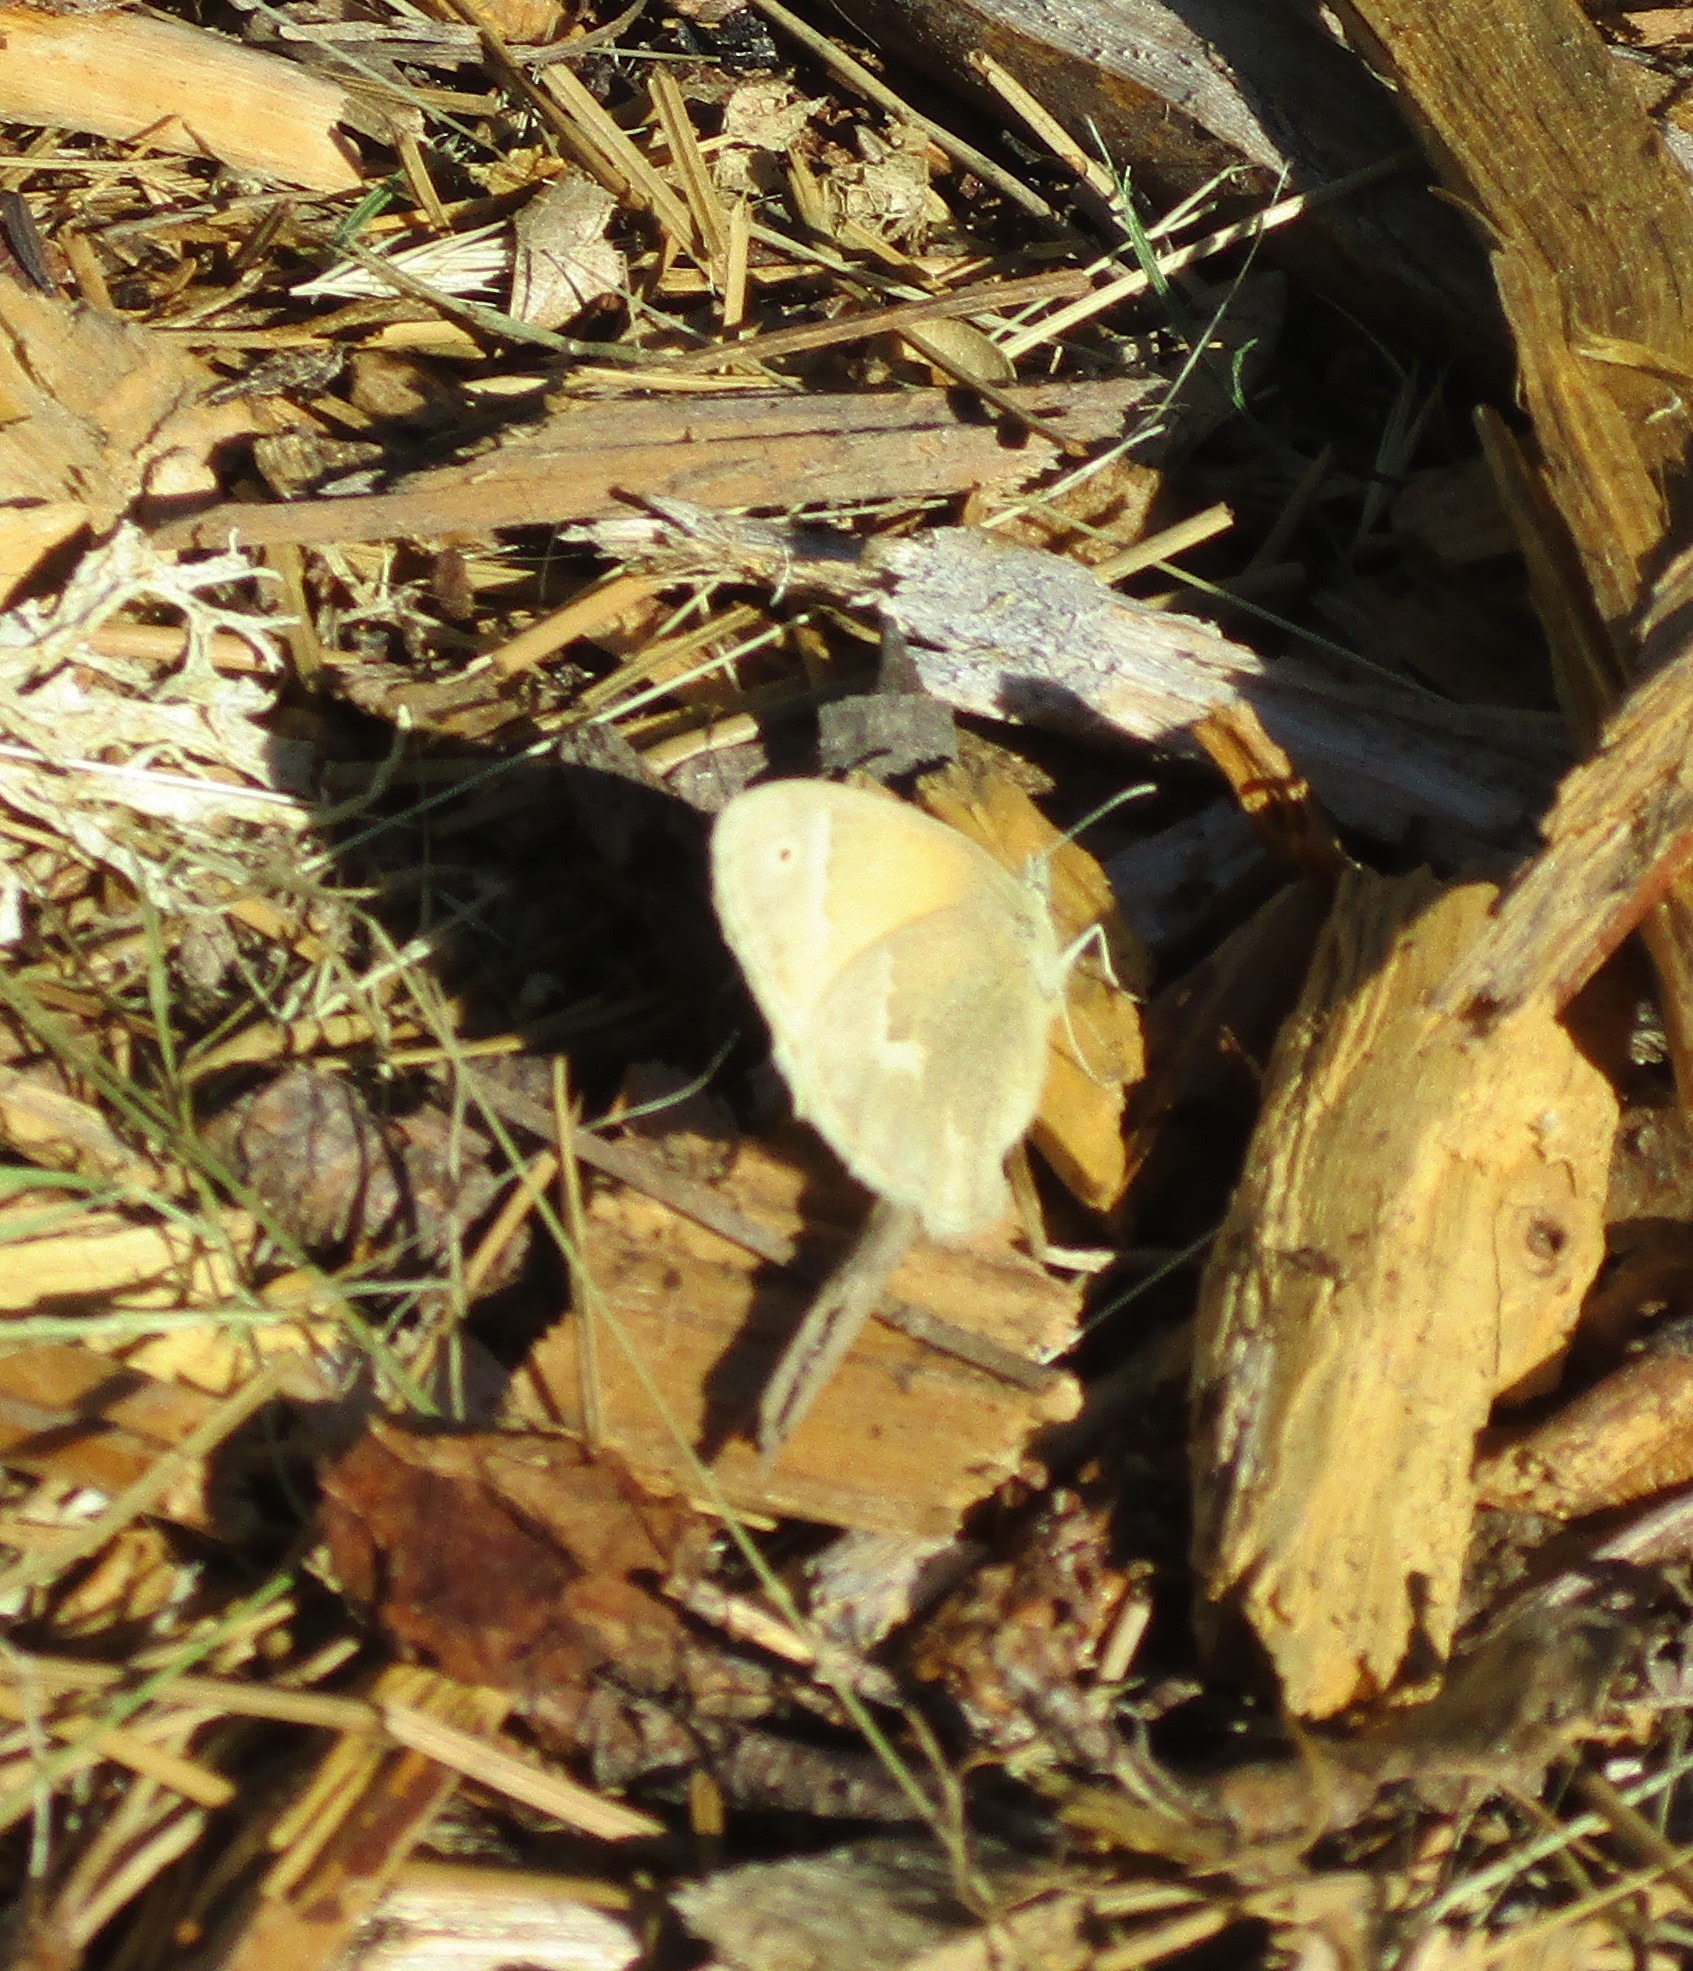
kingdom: Animalia
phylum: Arthropoda
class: Insecta
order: Lepidoptera
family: Nymphalidae
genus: Coenonympha
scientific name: Coenonympha california
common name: Common ringlet
